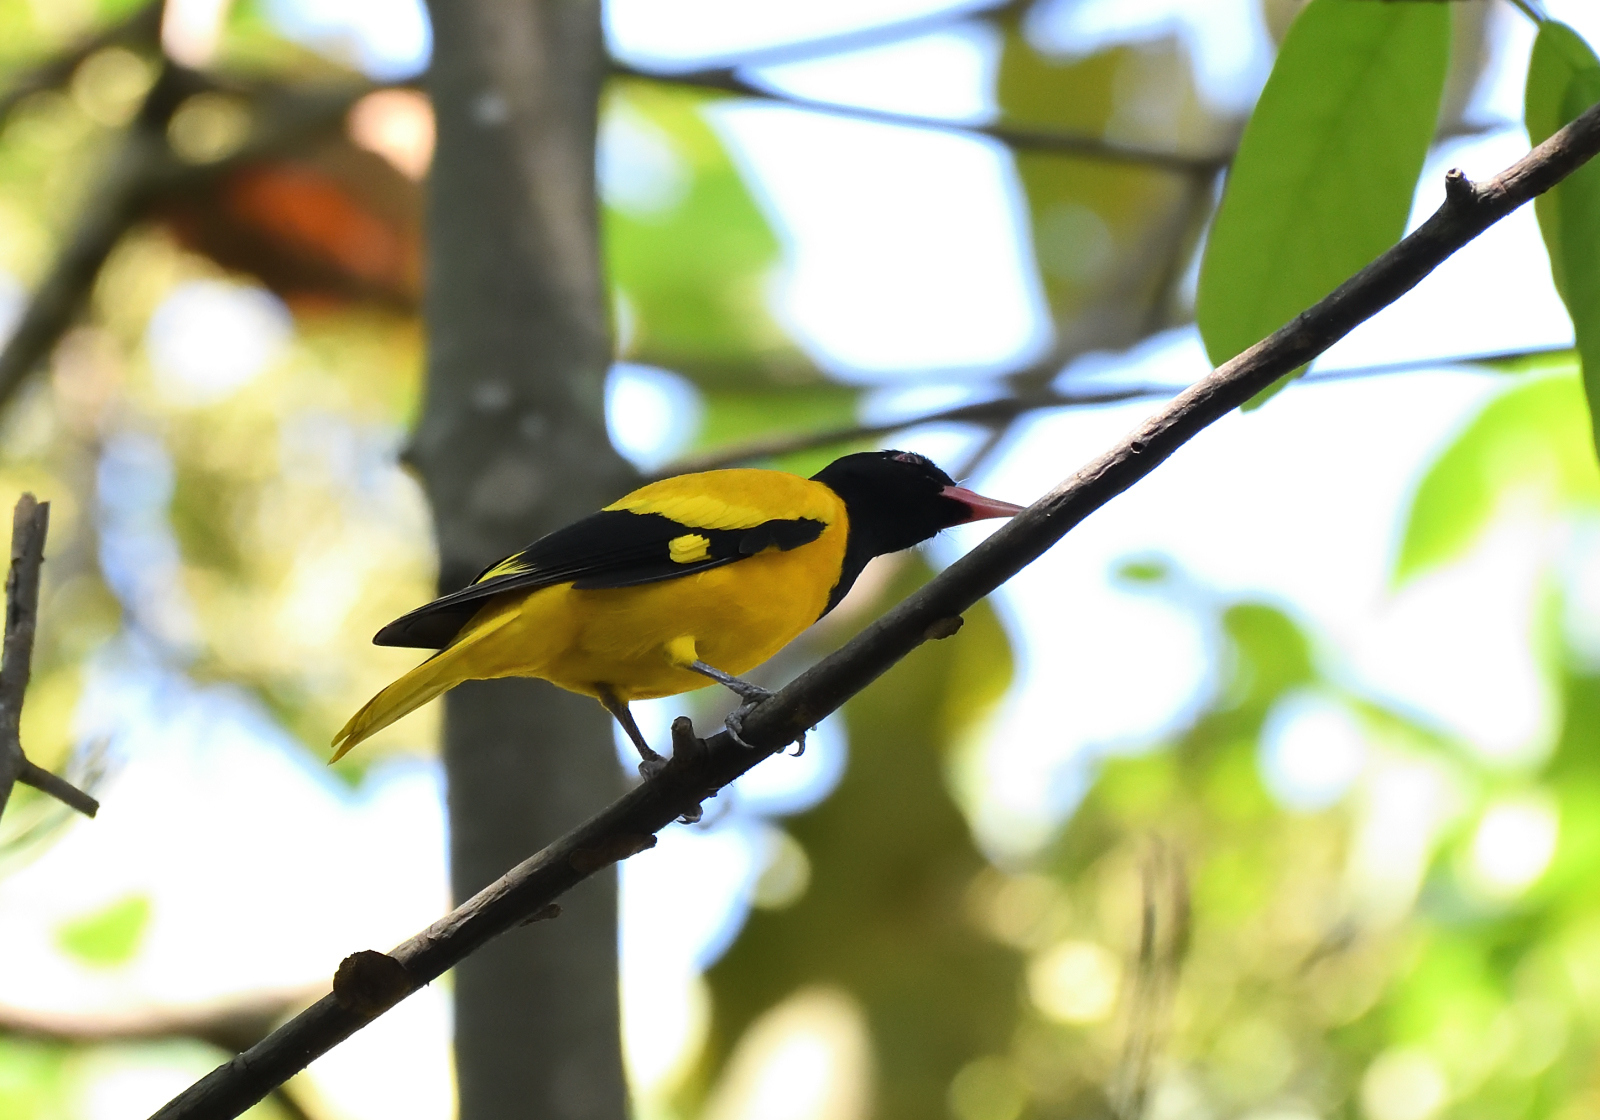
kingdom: Animalia
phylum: Chordata
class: Aves
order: Passeriformes
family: Oriolidae
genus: Oriolus
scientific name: Oriolus xanthornus
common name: Black-hooded oriole
